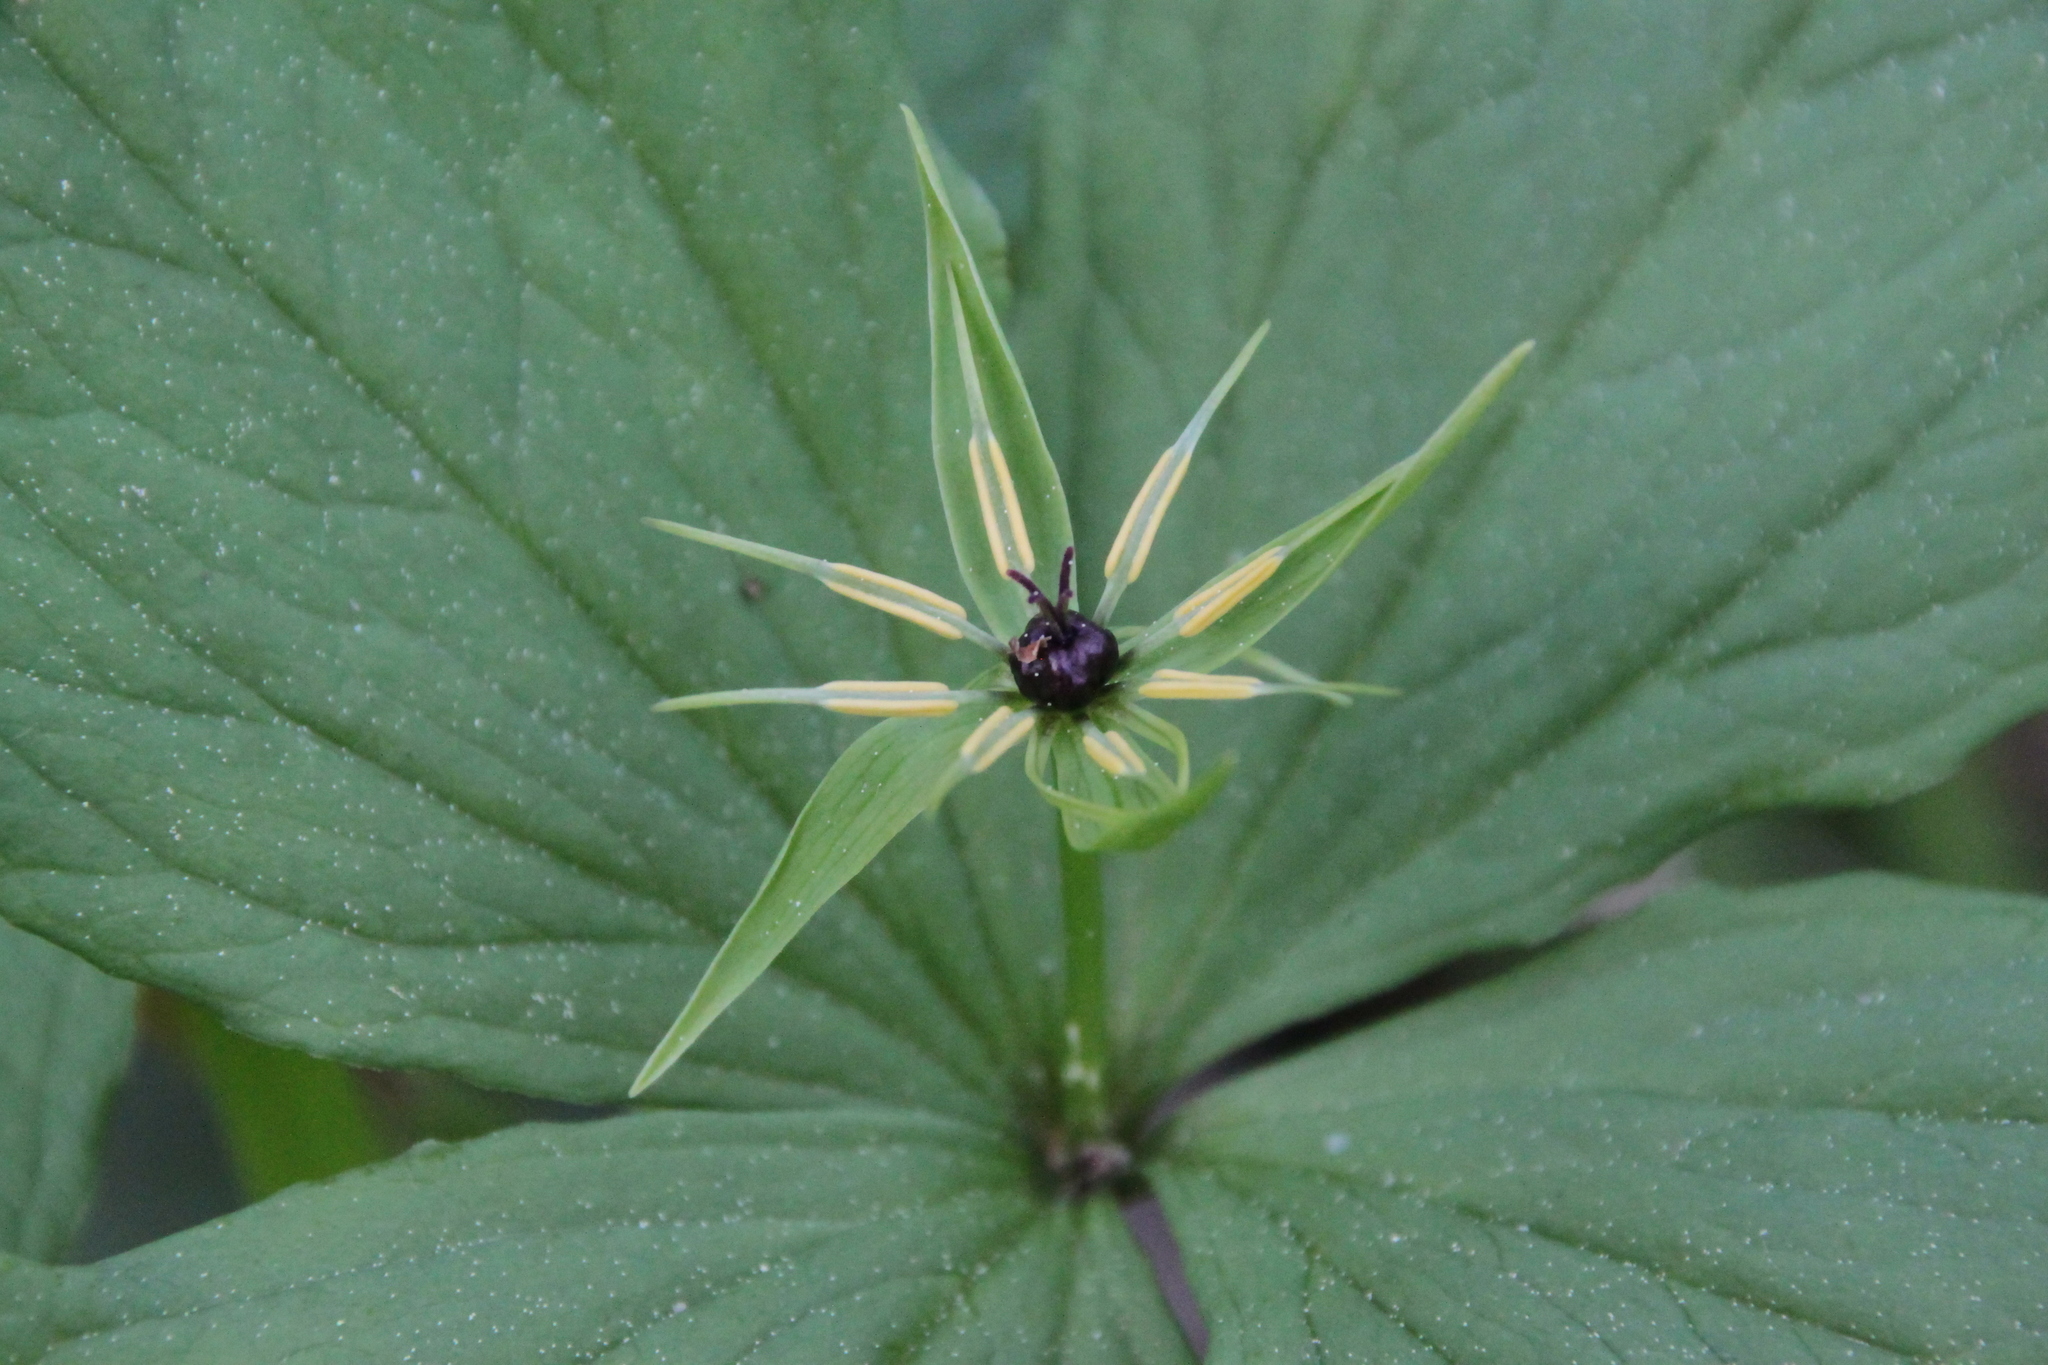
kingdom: Plantae
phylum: Tracheophyta
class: Liliopsida
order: Liliales
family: Melanthiaceae
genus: Paris
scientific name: Paris quadrifolia
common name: Herb-paris
